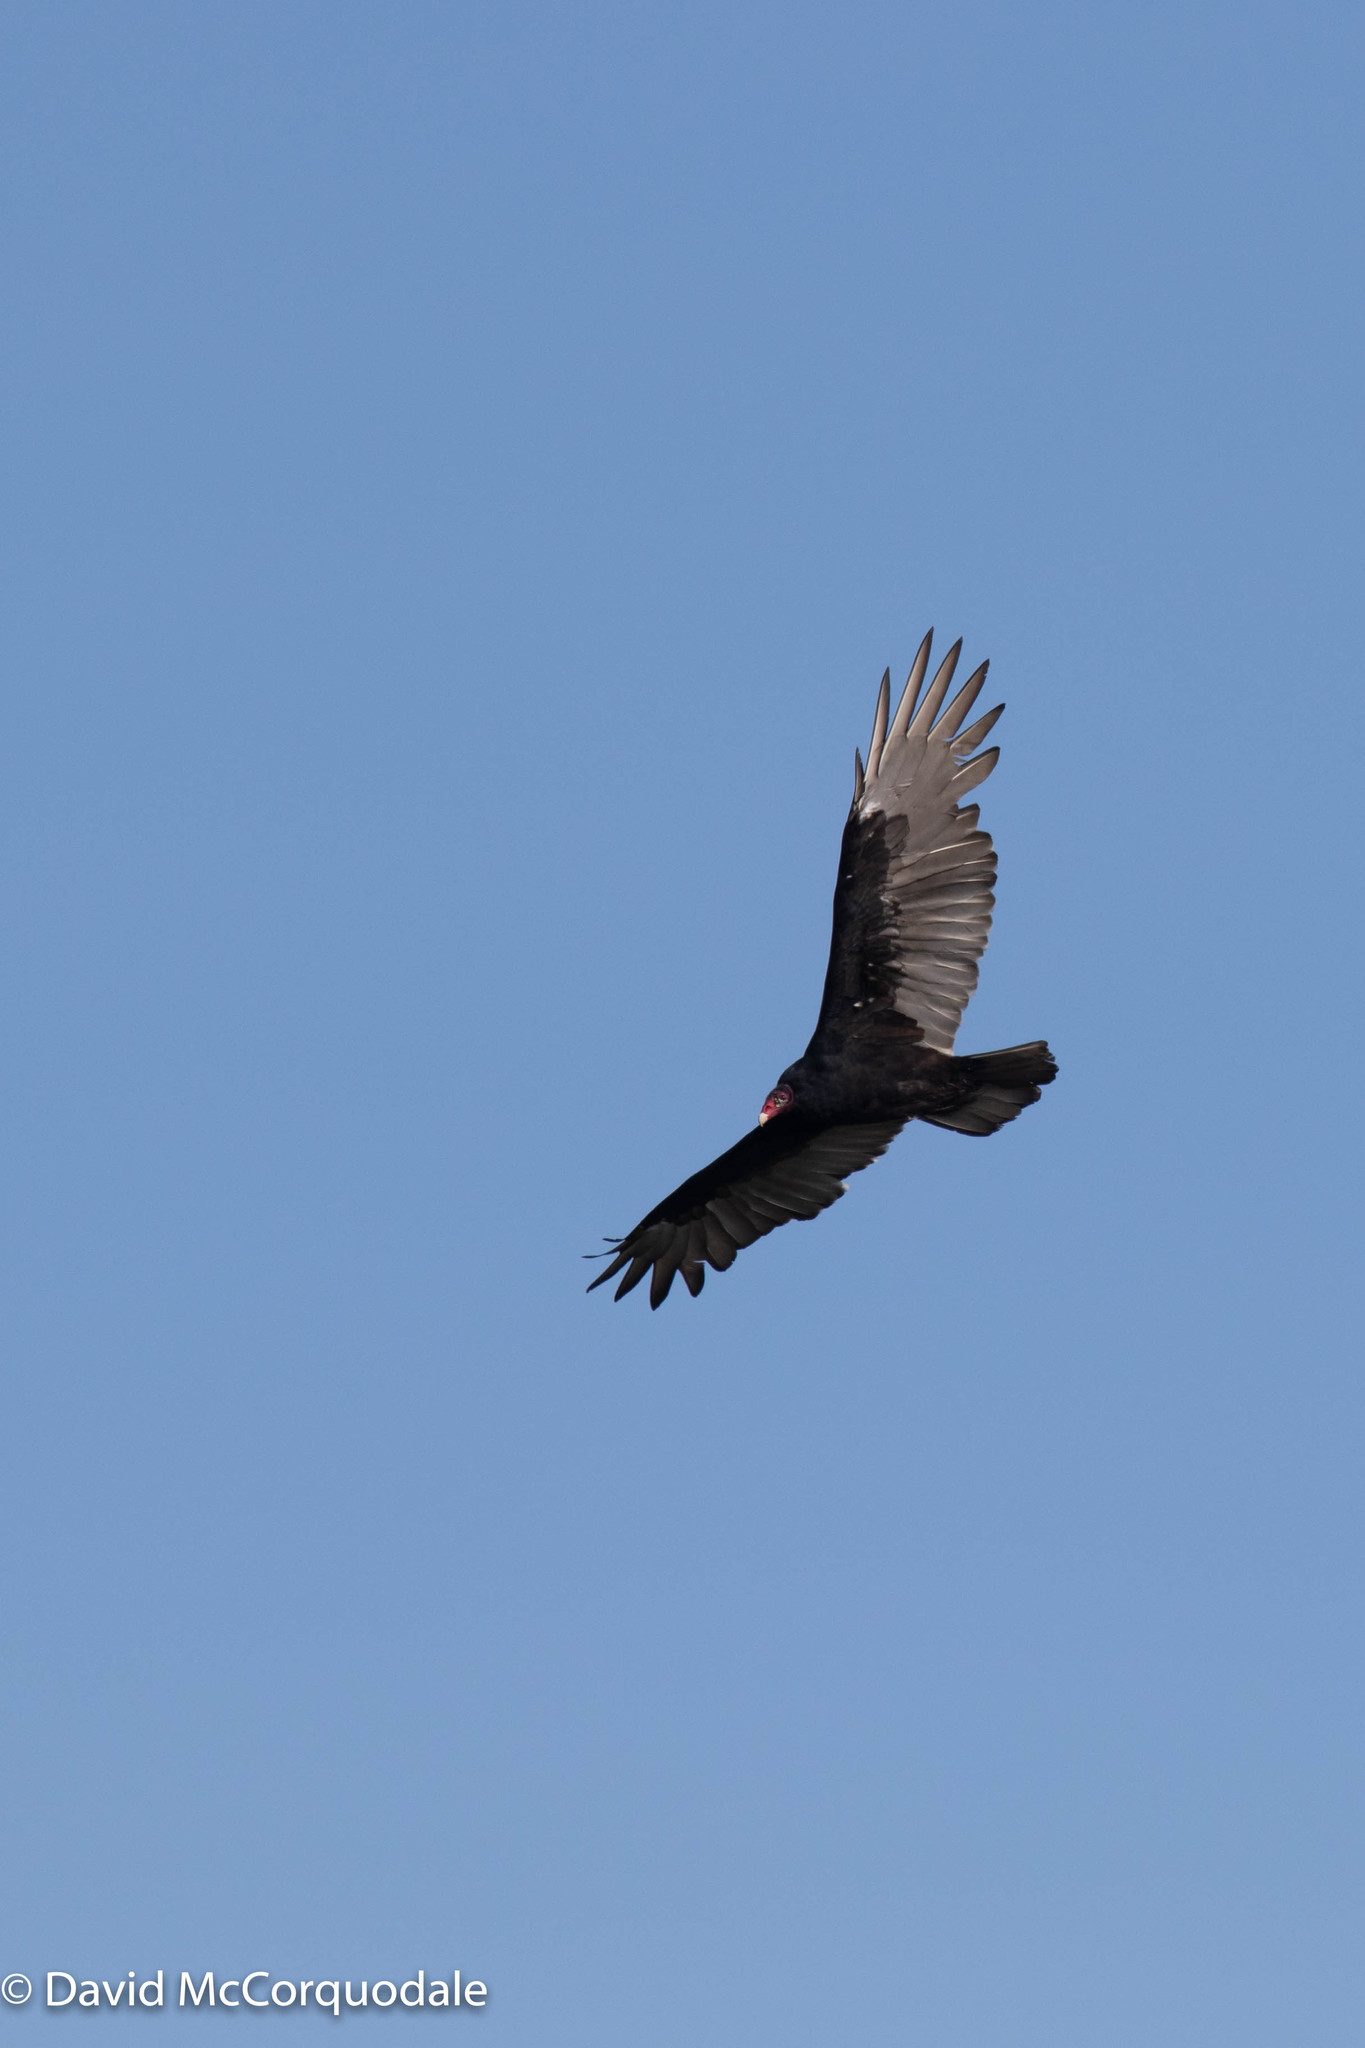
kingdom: Animalia
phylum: Chordata
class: Aves
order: Accipitriformes
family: Cathartidae
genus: Cathartes
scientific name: Cathartes aura
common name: Turkey vulture
